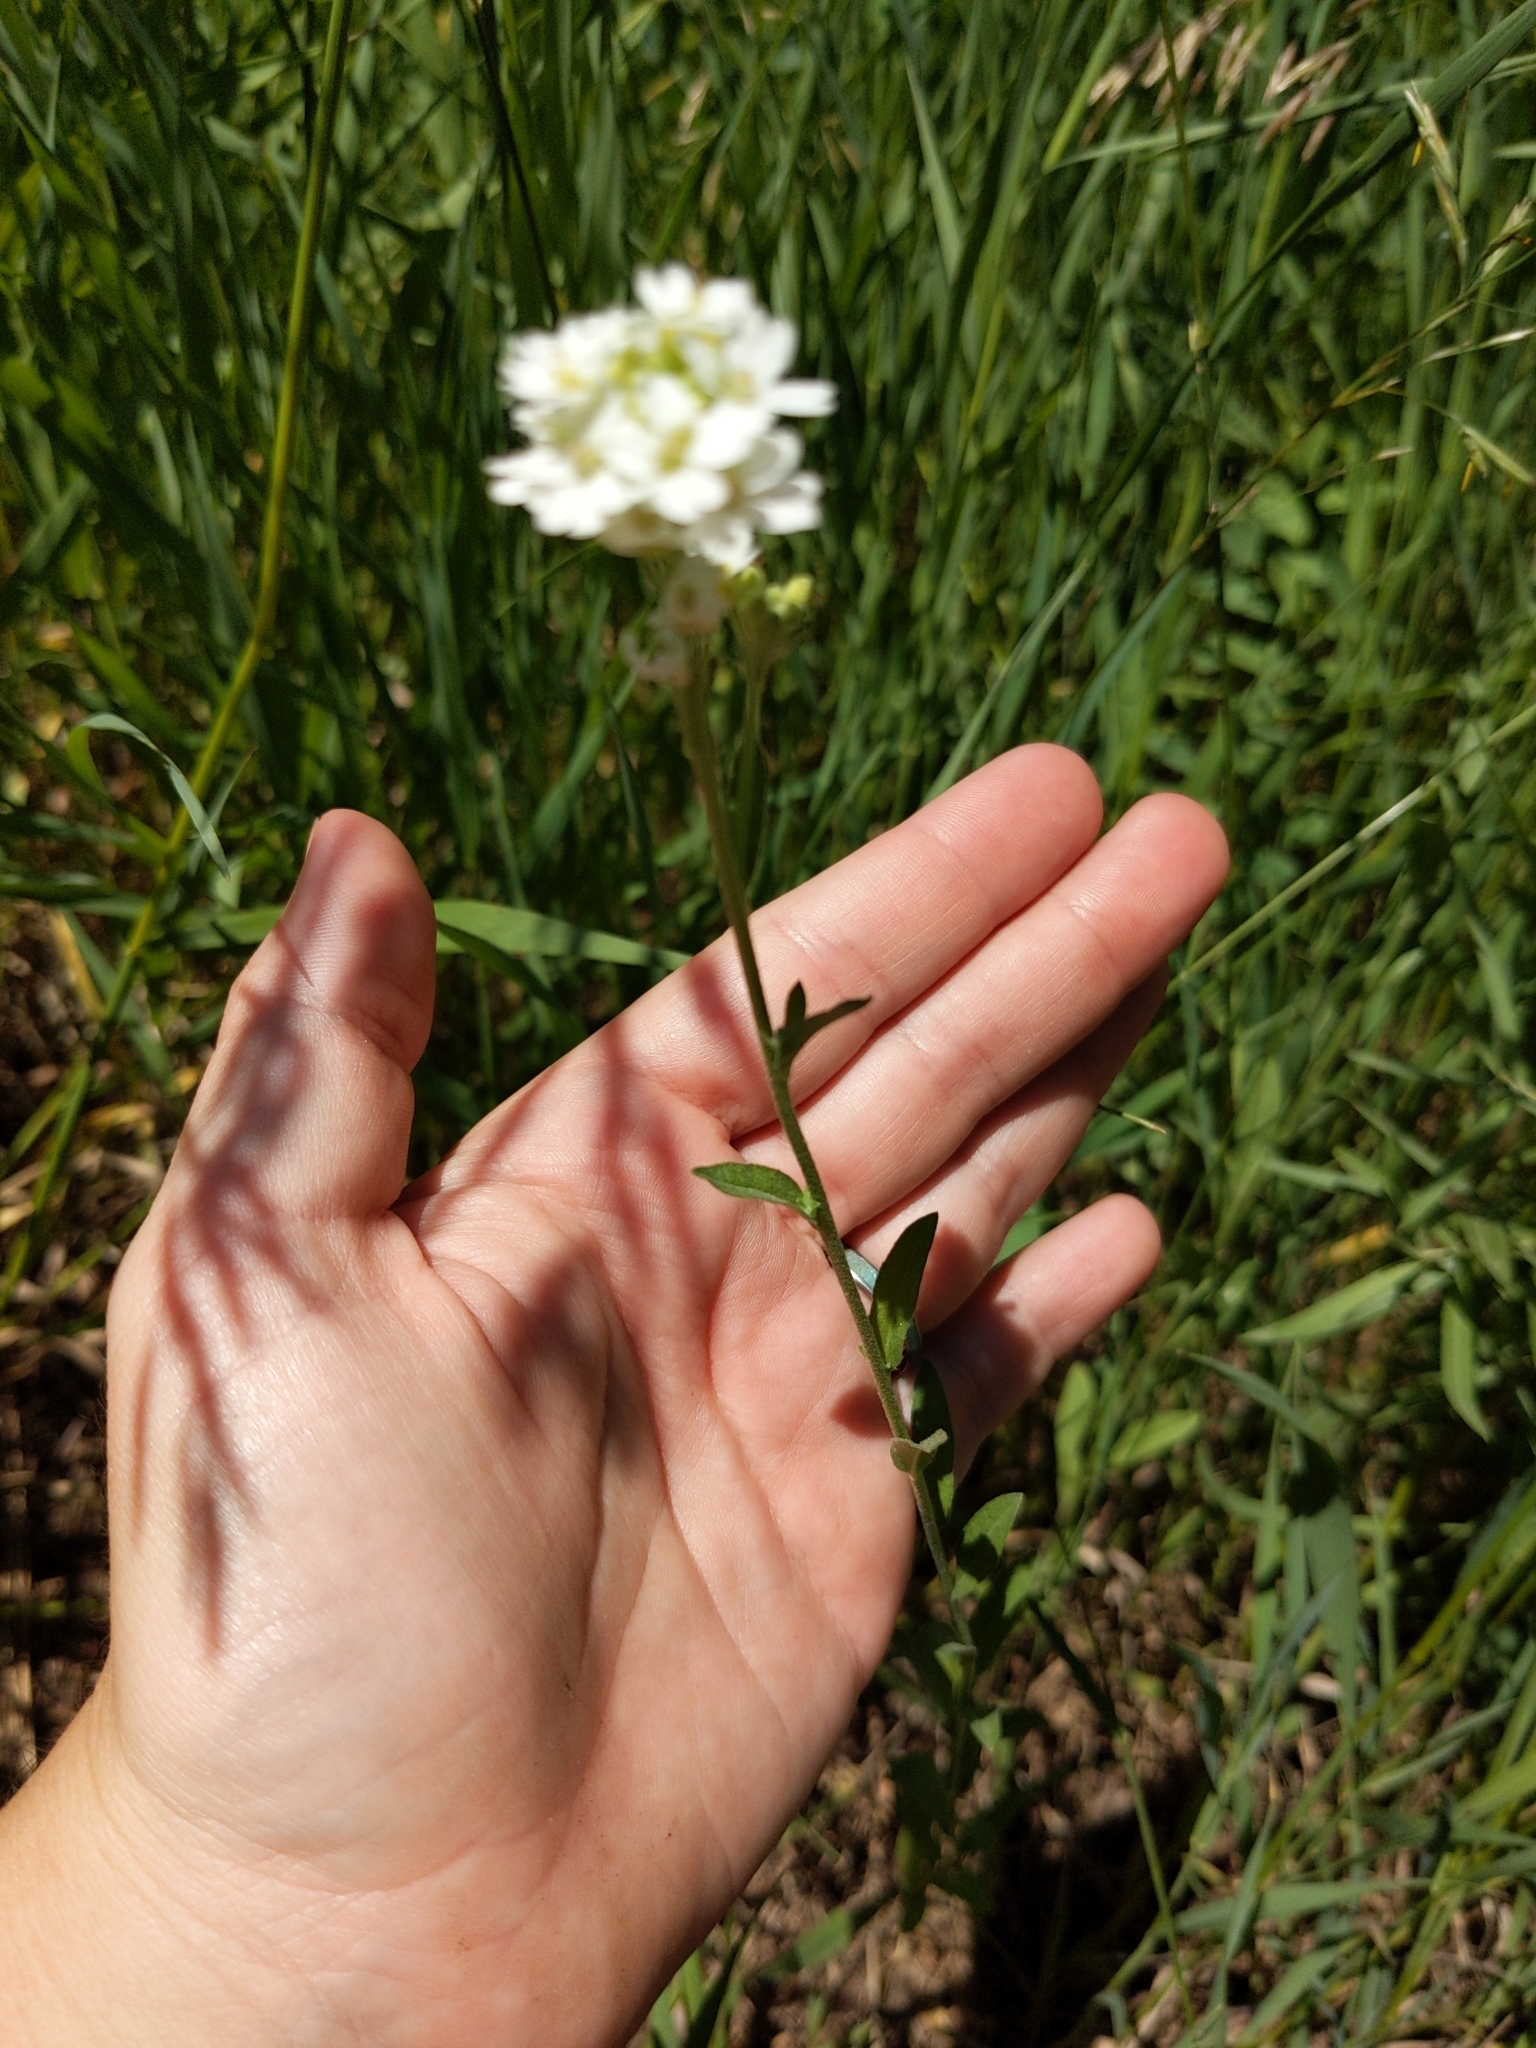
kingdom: Plantae
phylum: Tracheophyta
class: Magnoliopsida
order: Brassicales
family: Brassicaceae
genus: Berteroa
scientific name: Berteroa incana
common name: Hoary alison
